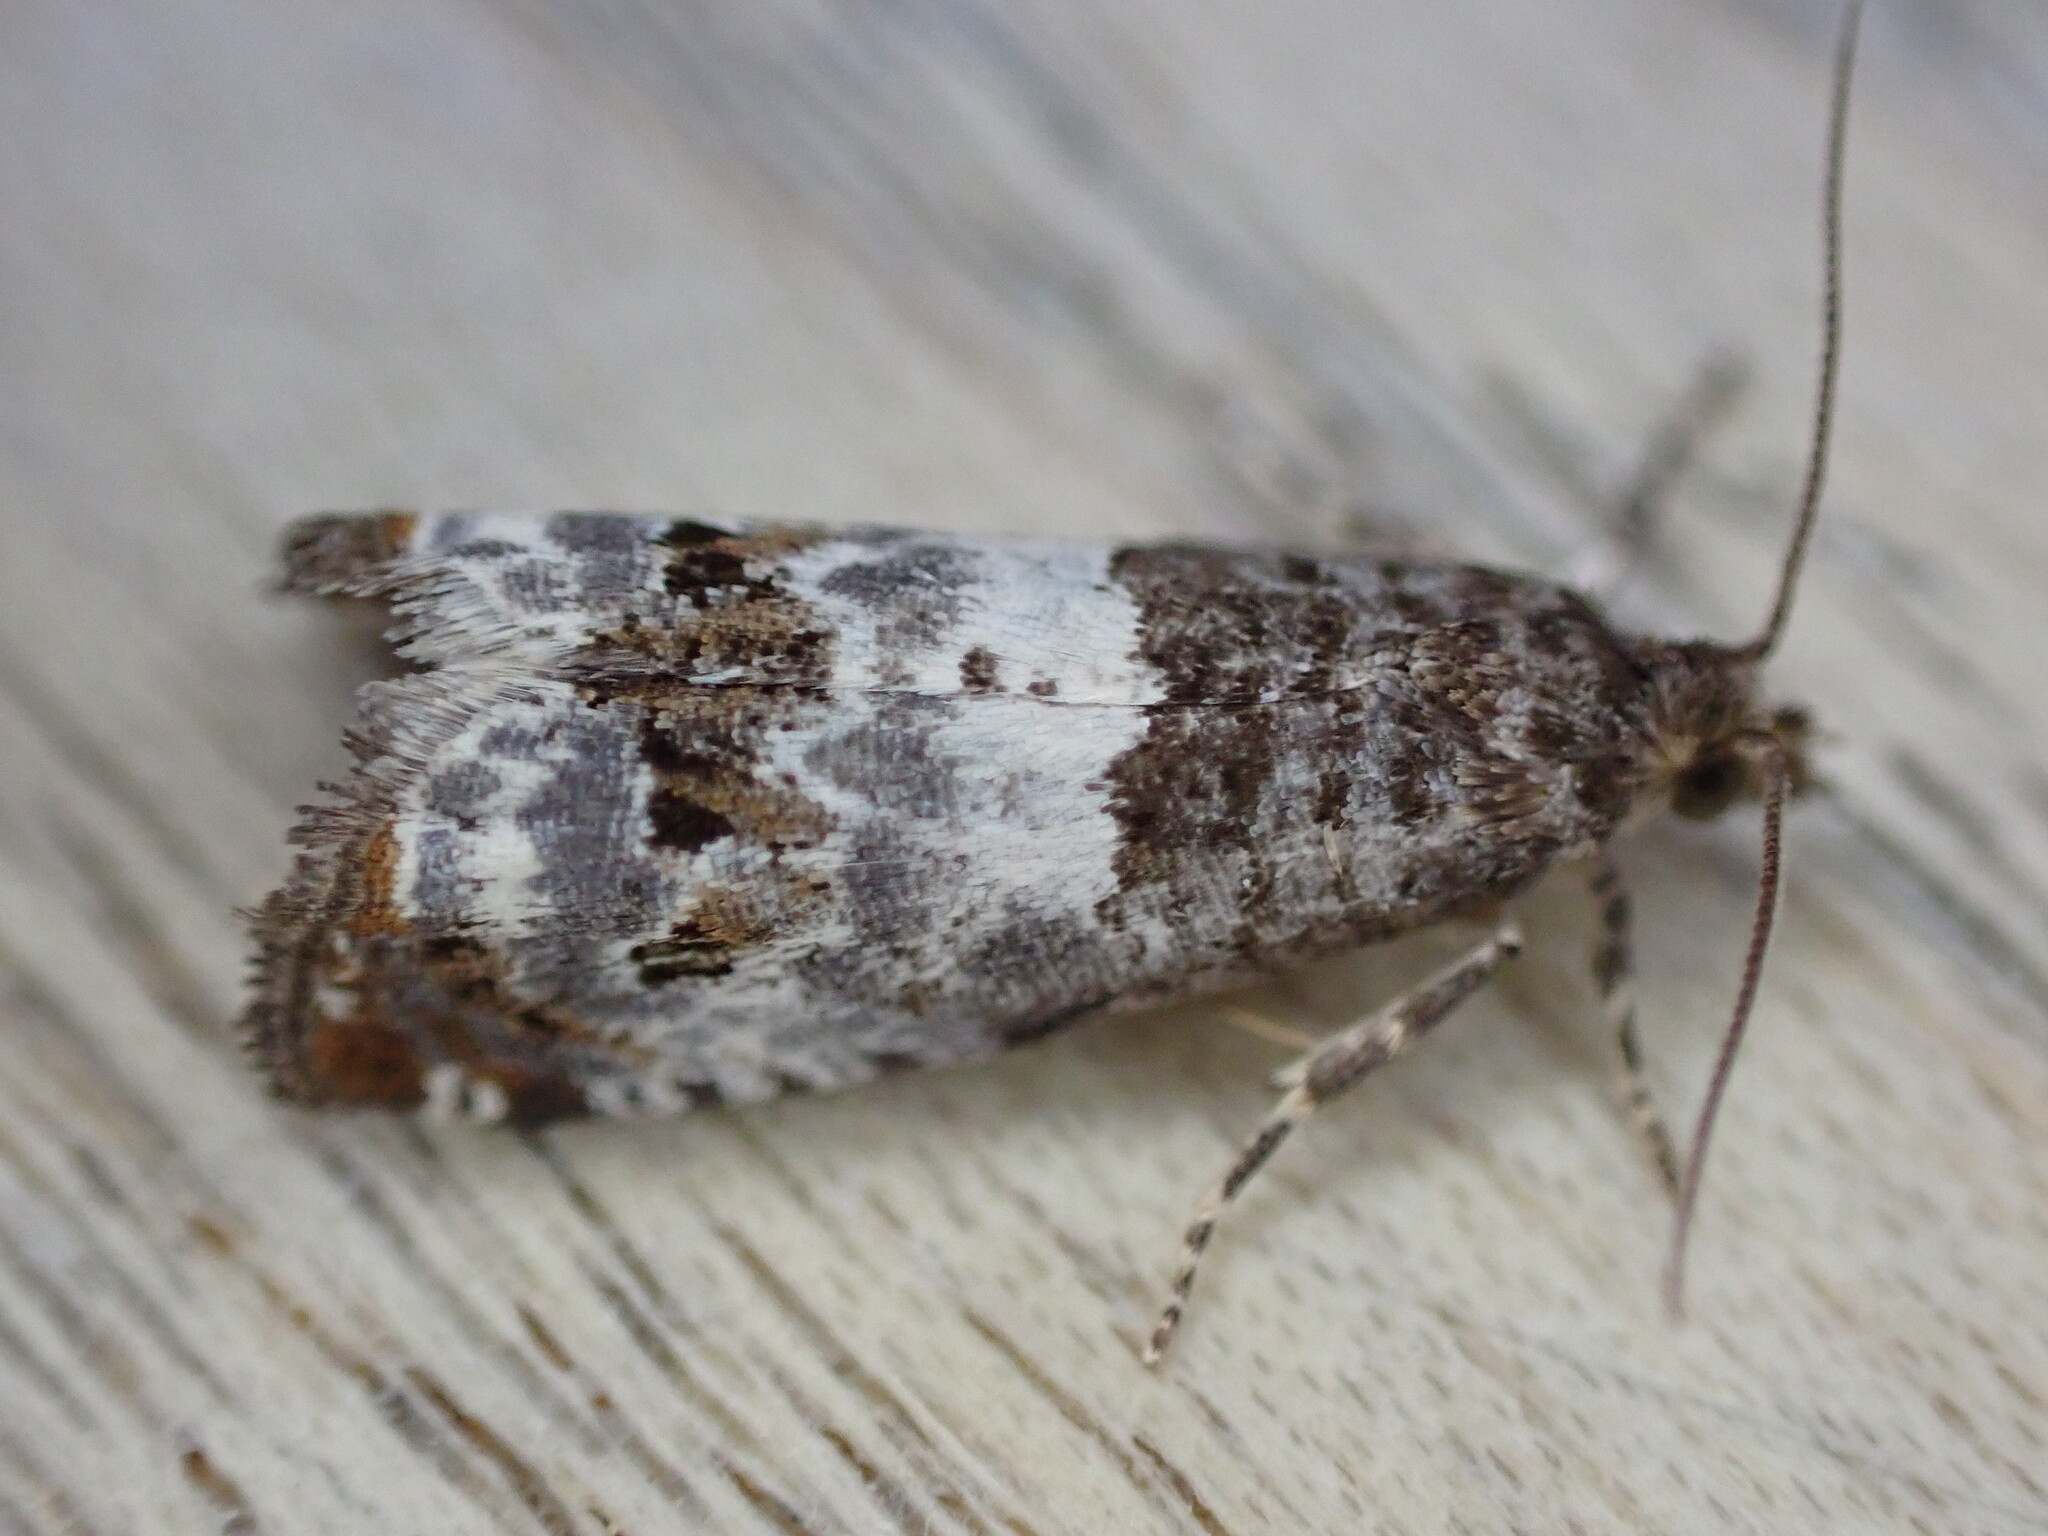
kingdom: Animalia
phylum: Arthropoda
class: Insecta
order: Lepidoptera
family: Tortricidae
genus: Notocelia
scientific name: Notocelia rosaecolana
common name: Common rose bell
